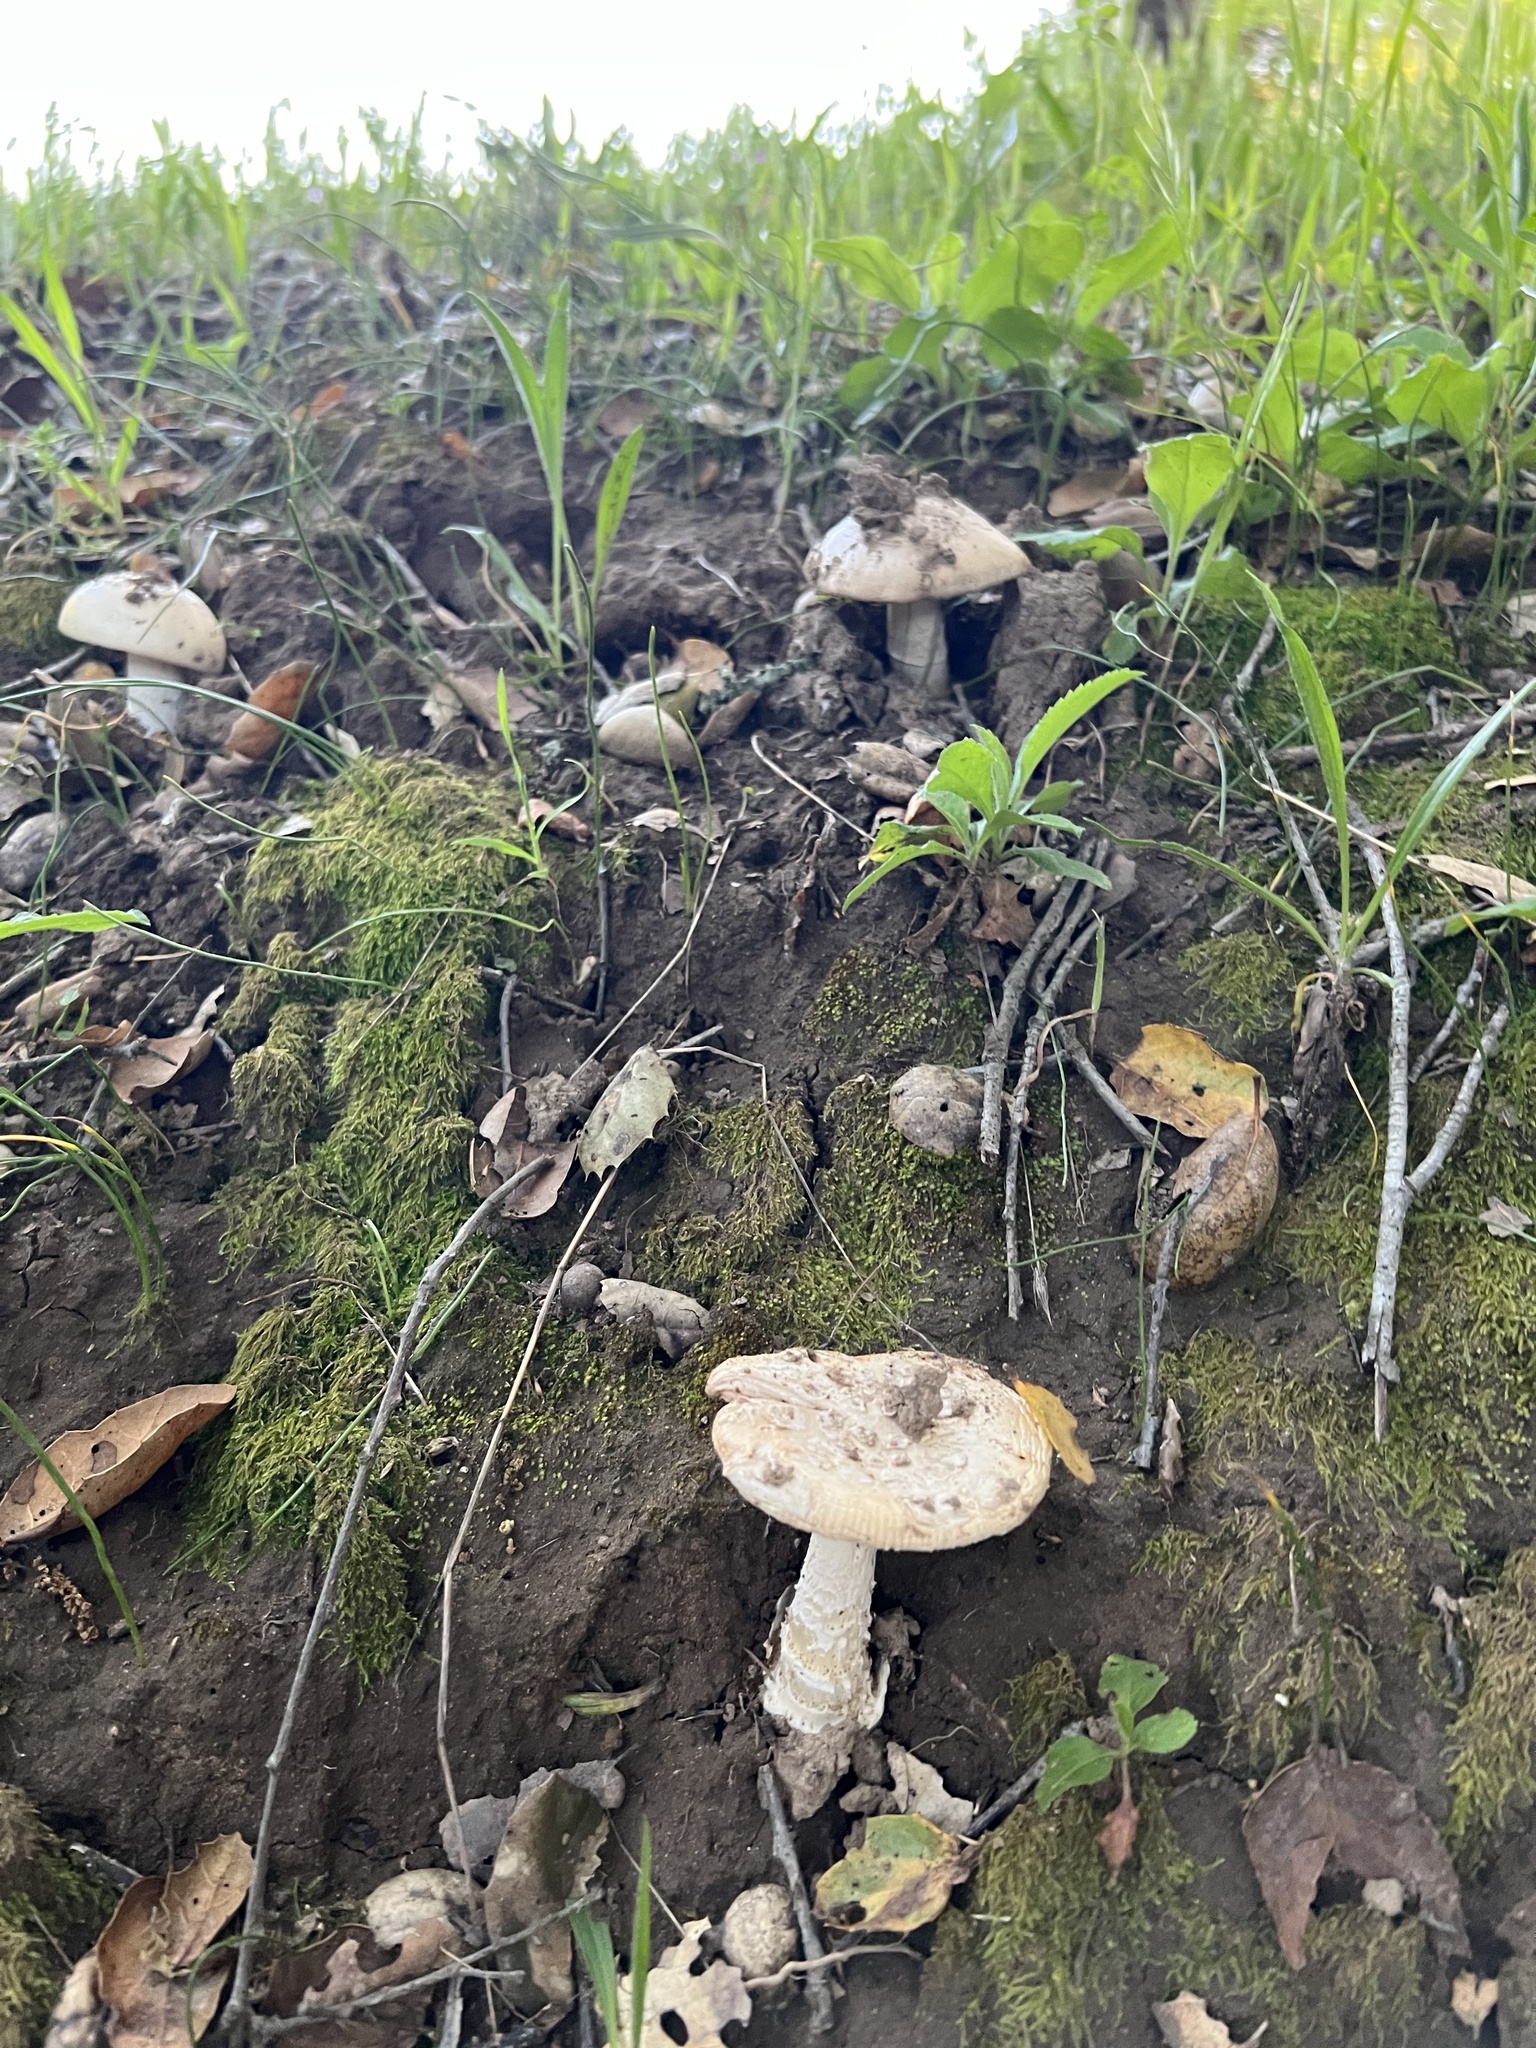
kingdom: Fungi
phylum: Basidiomycota
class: Agaricomycetes
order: Agaricales
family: Amanitaceae
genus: Amanita
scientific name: Amanita velosa
